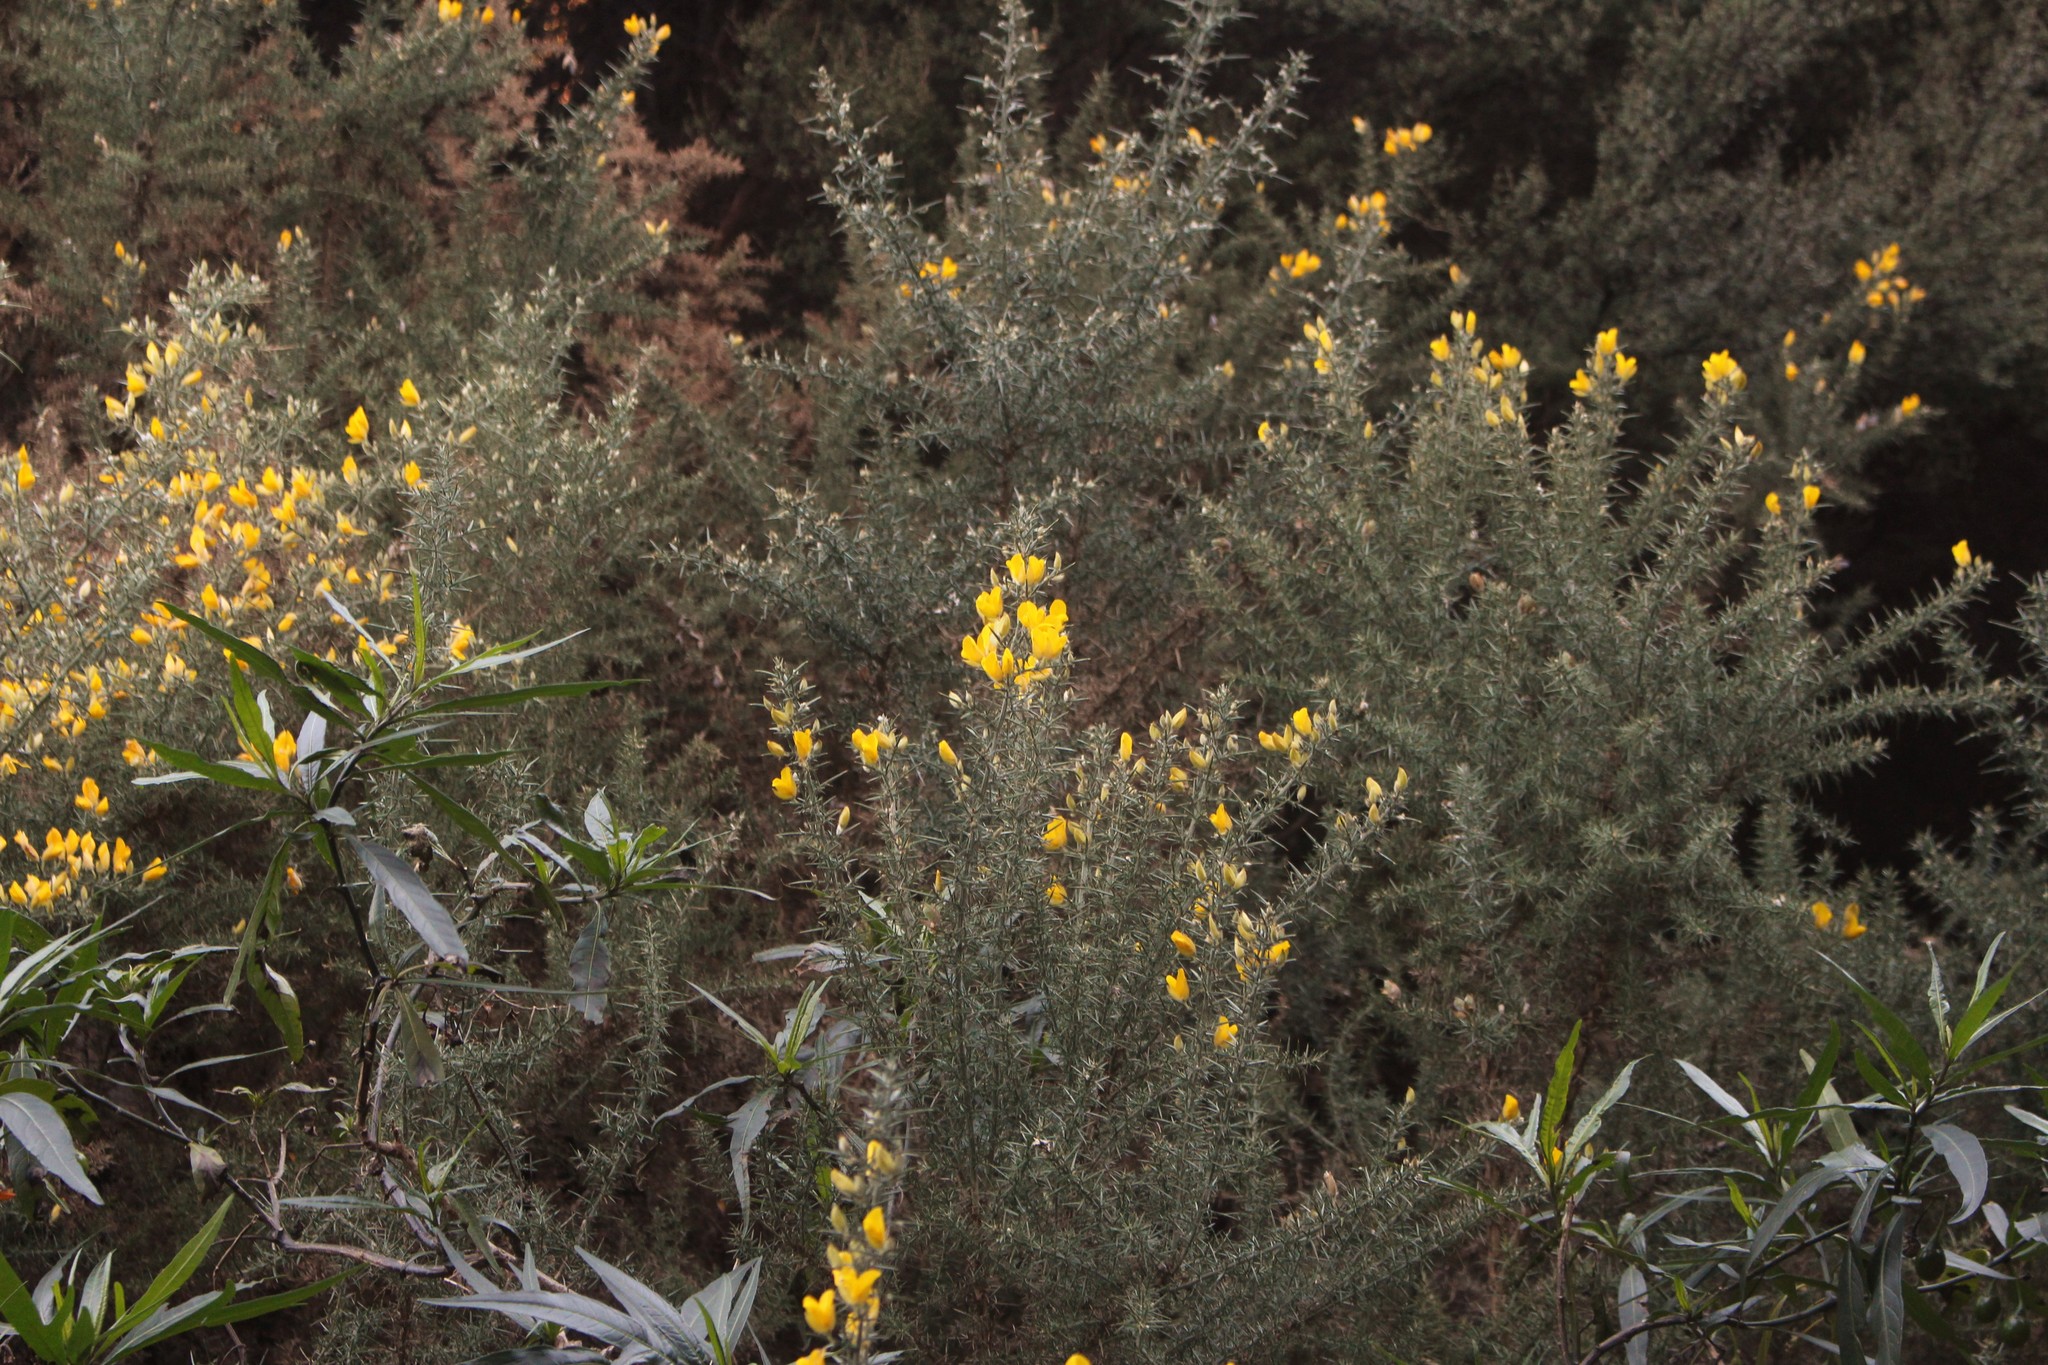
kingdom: Plantae
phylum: Tracheophyta
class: Magnoliopsida
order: Fabales
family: Fabaceae
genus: Ulex
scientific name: Ulex europaeus
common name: Common gorse
